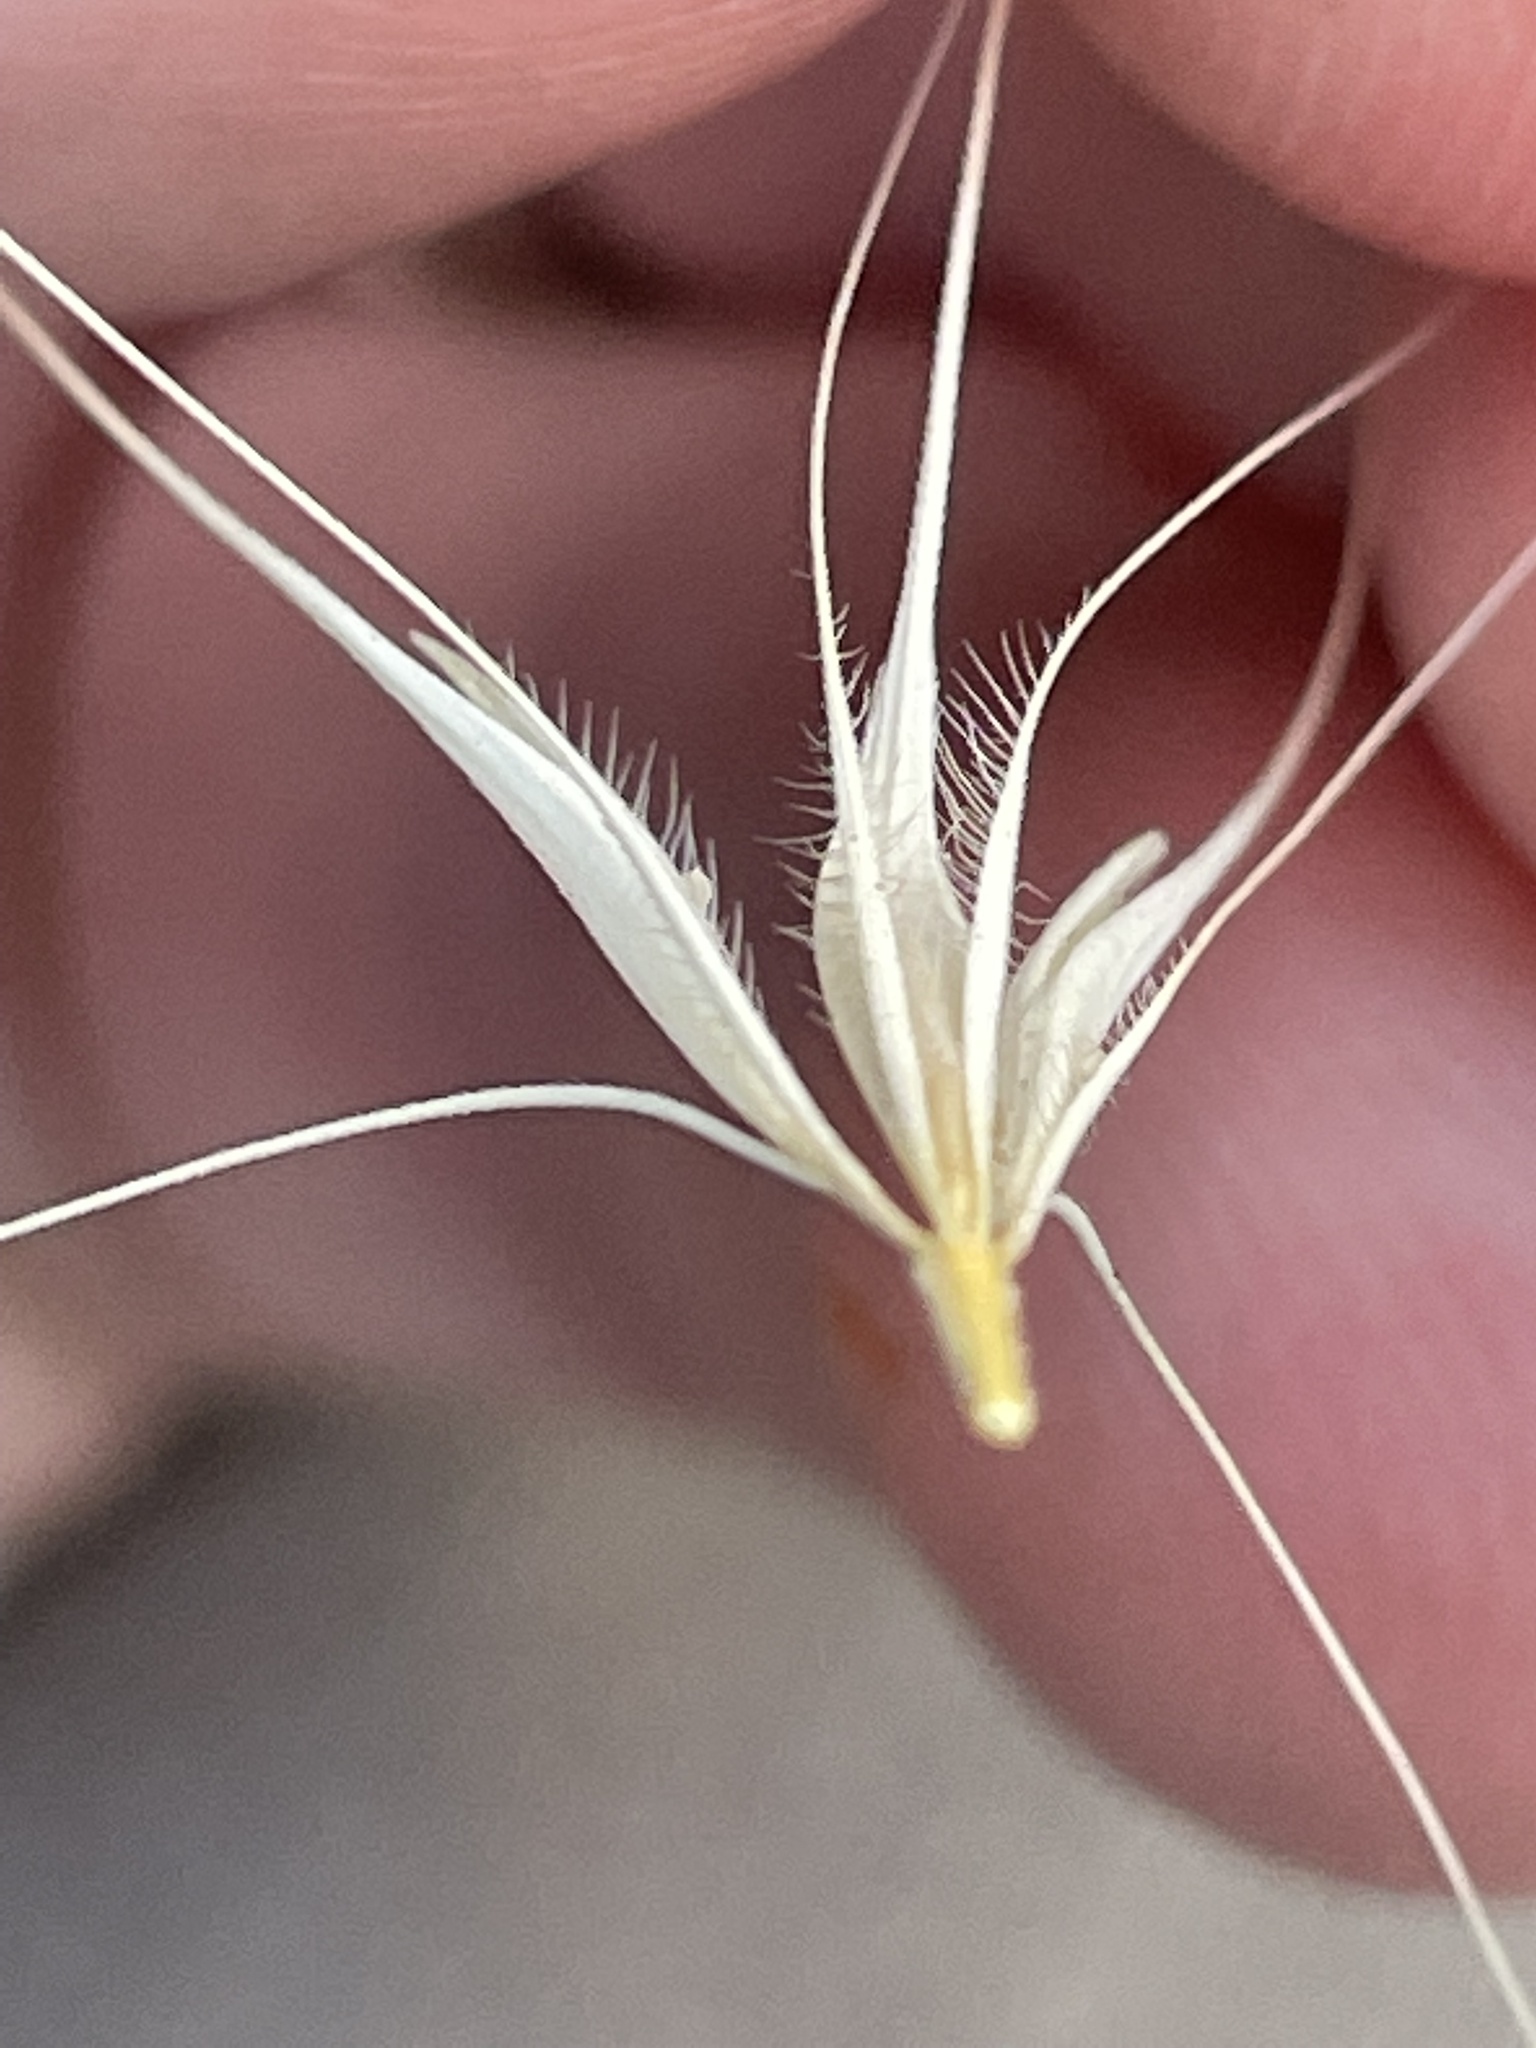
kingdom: Plantae
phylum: Tracheophyta
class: Liliopsida
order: Poales
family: Poaceae
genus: Hordeum
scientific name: Hordeum murinum
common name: Wall barley
